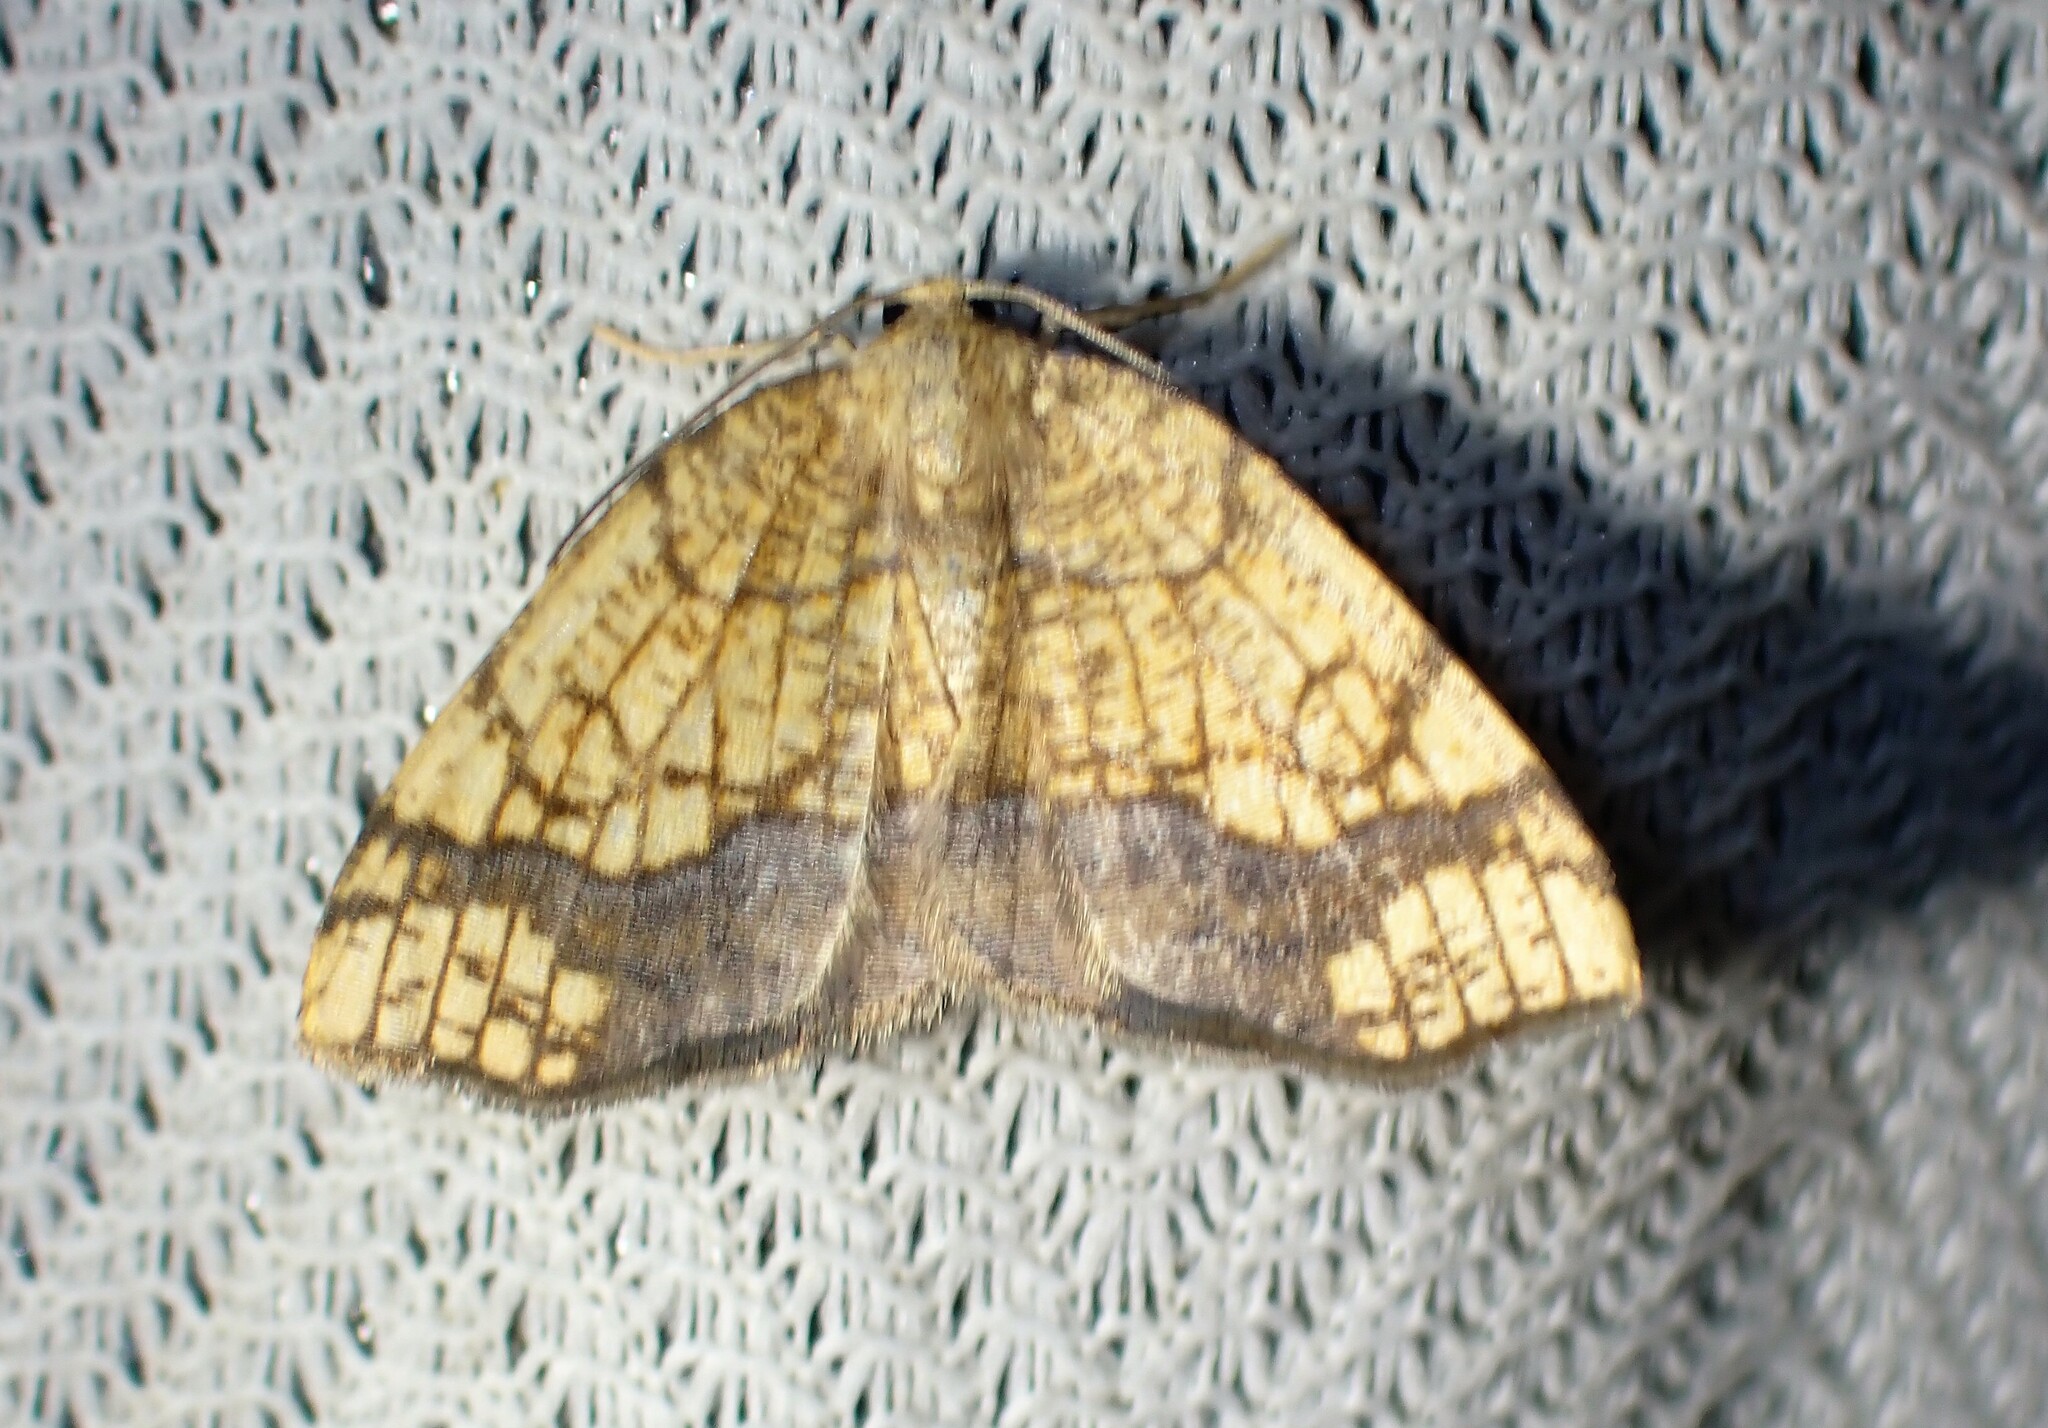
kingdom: Animalia
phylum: Arthropoda
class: Insecta
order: Lepidoptera
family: Geometridae
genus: Nematocampa
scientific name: Nematocampa resistaria
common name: Horned spanworm moth
